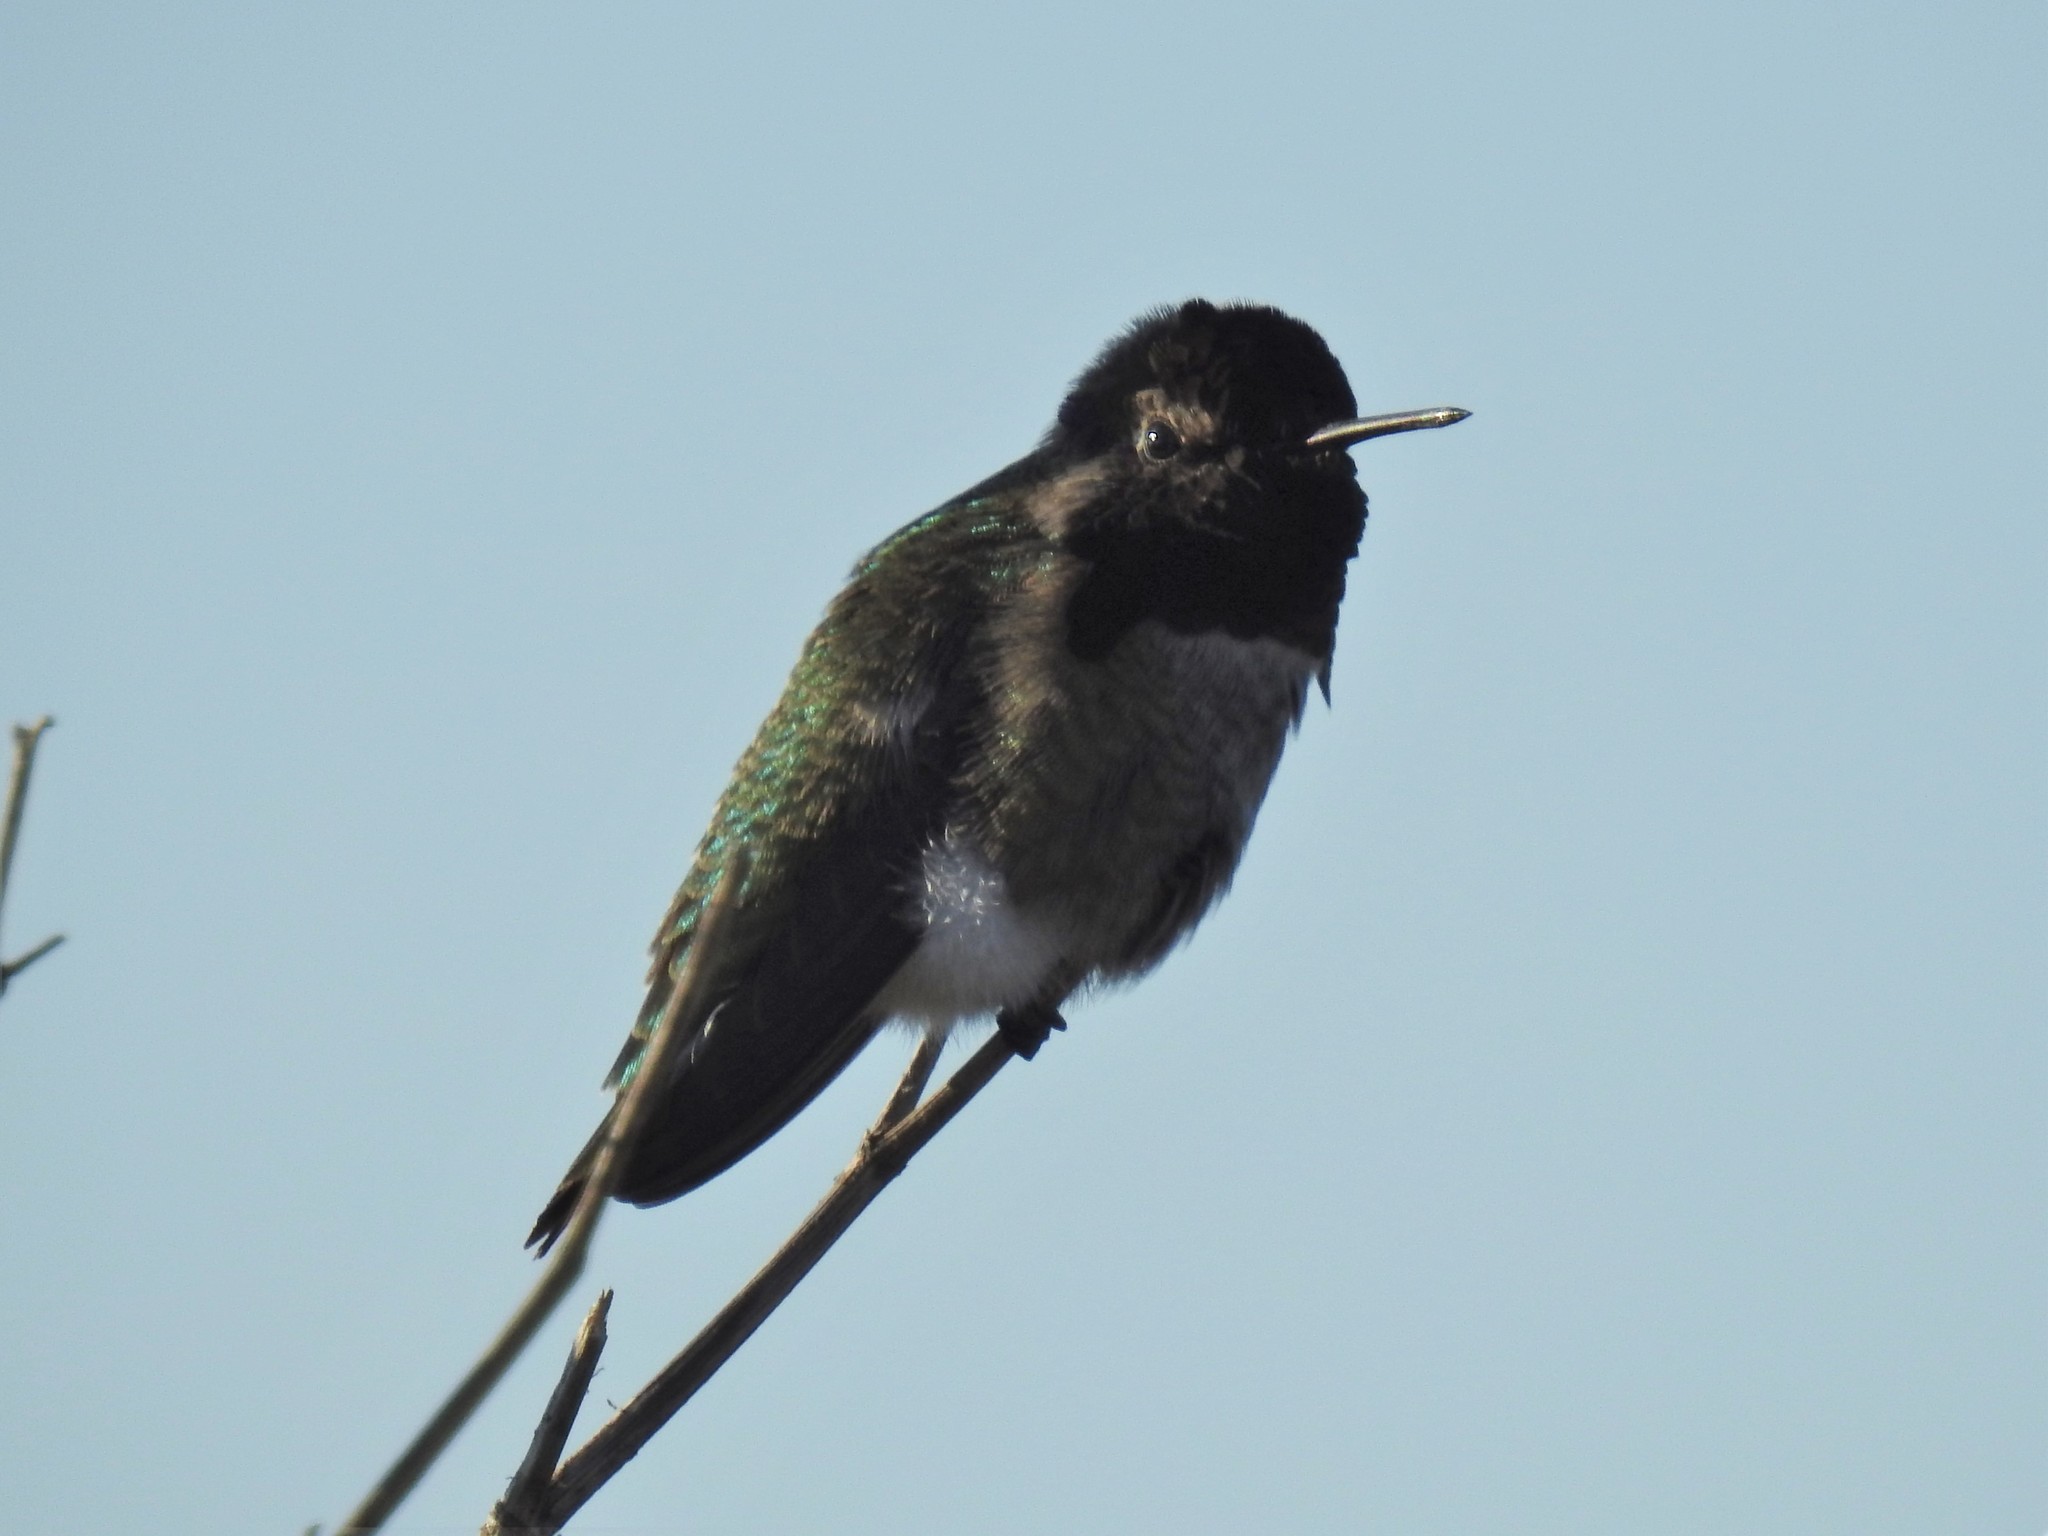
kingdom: Animalia
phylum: Chordata
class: Aves
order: Apodiformes
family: Trochilidae
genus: Calypte
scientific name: Calypte anna
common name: Anna's hummingbird
